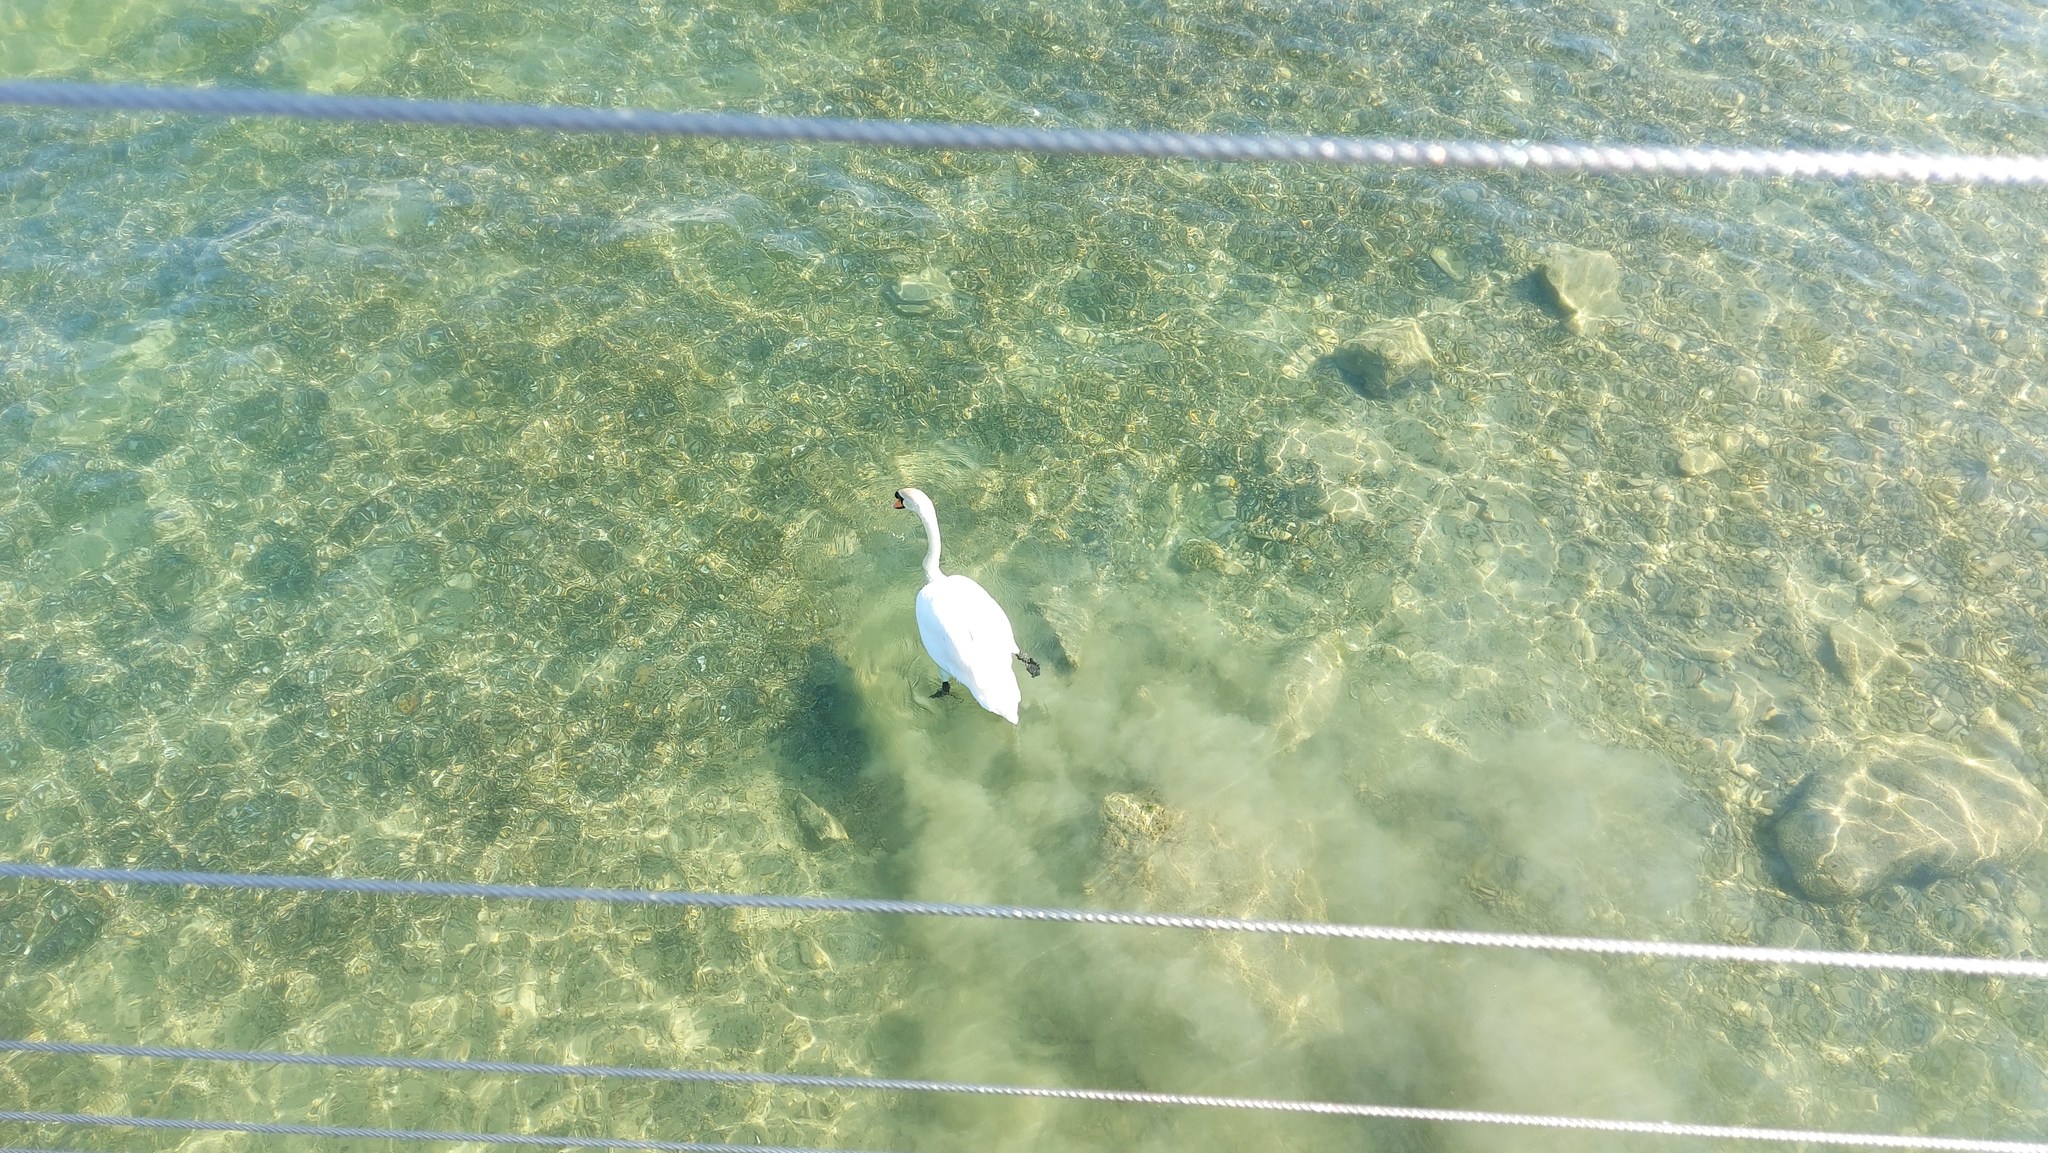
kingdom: Animalia
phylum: Chordata
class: Aves
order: Anseriformes
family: Anatidae
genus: Cygnus
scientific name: Cygnus olor
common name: Mute swan
